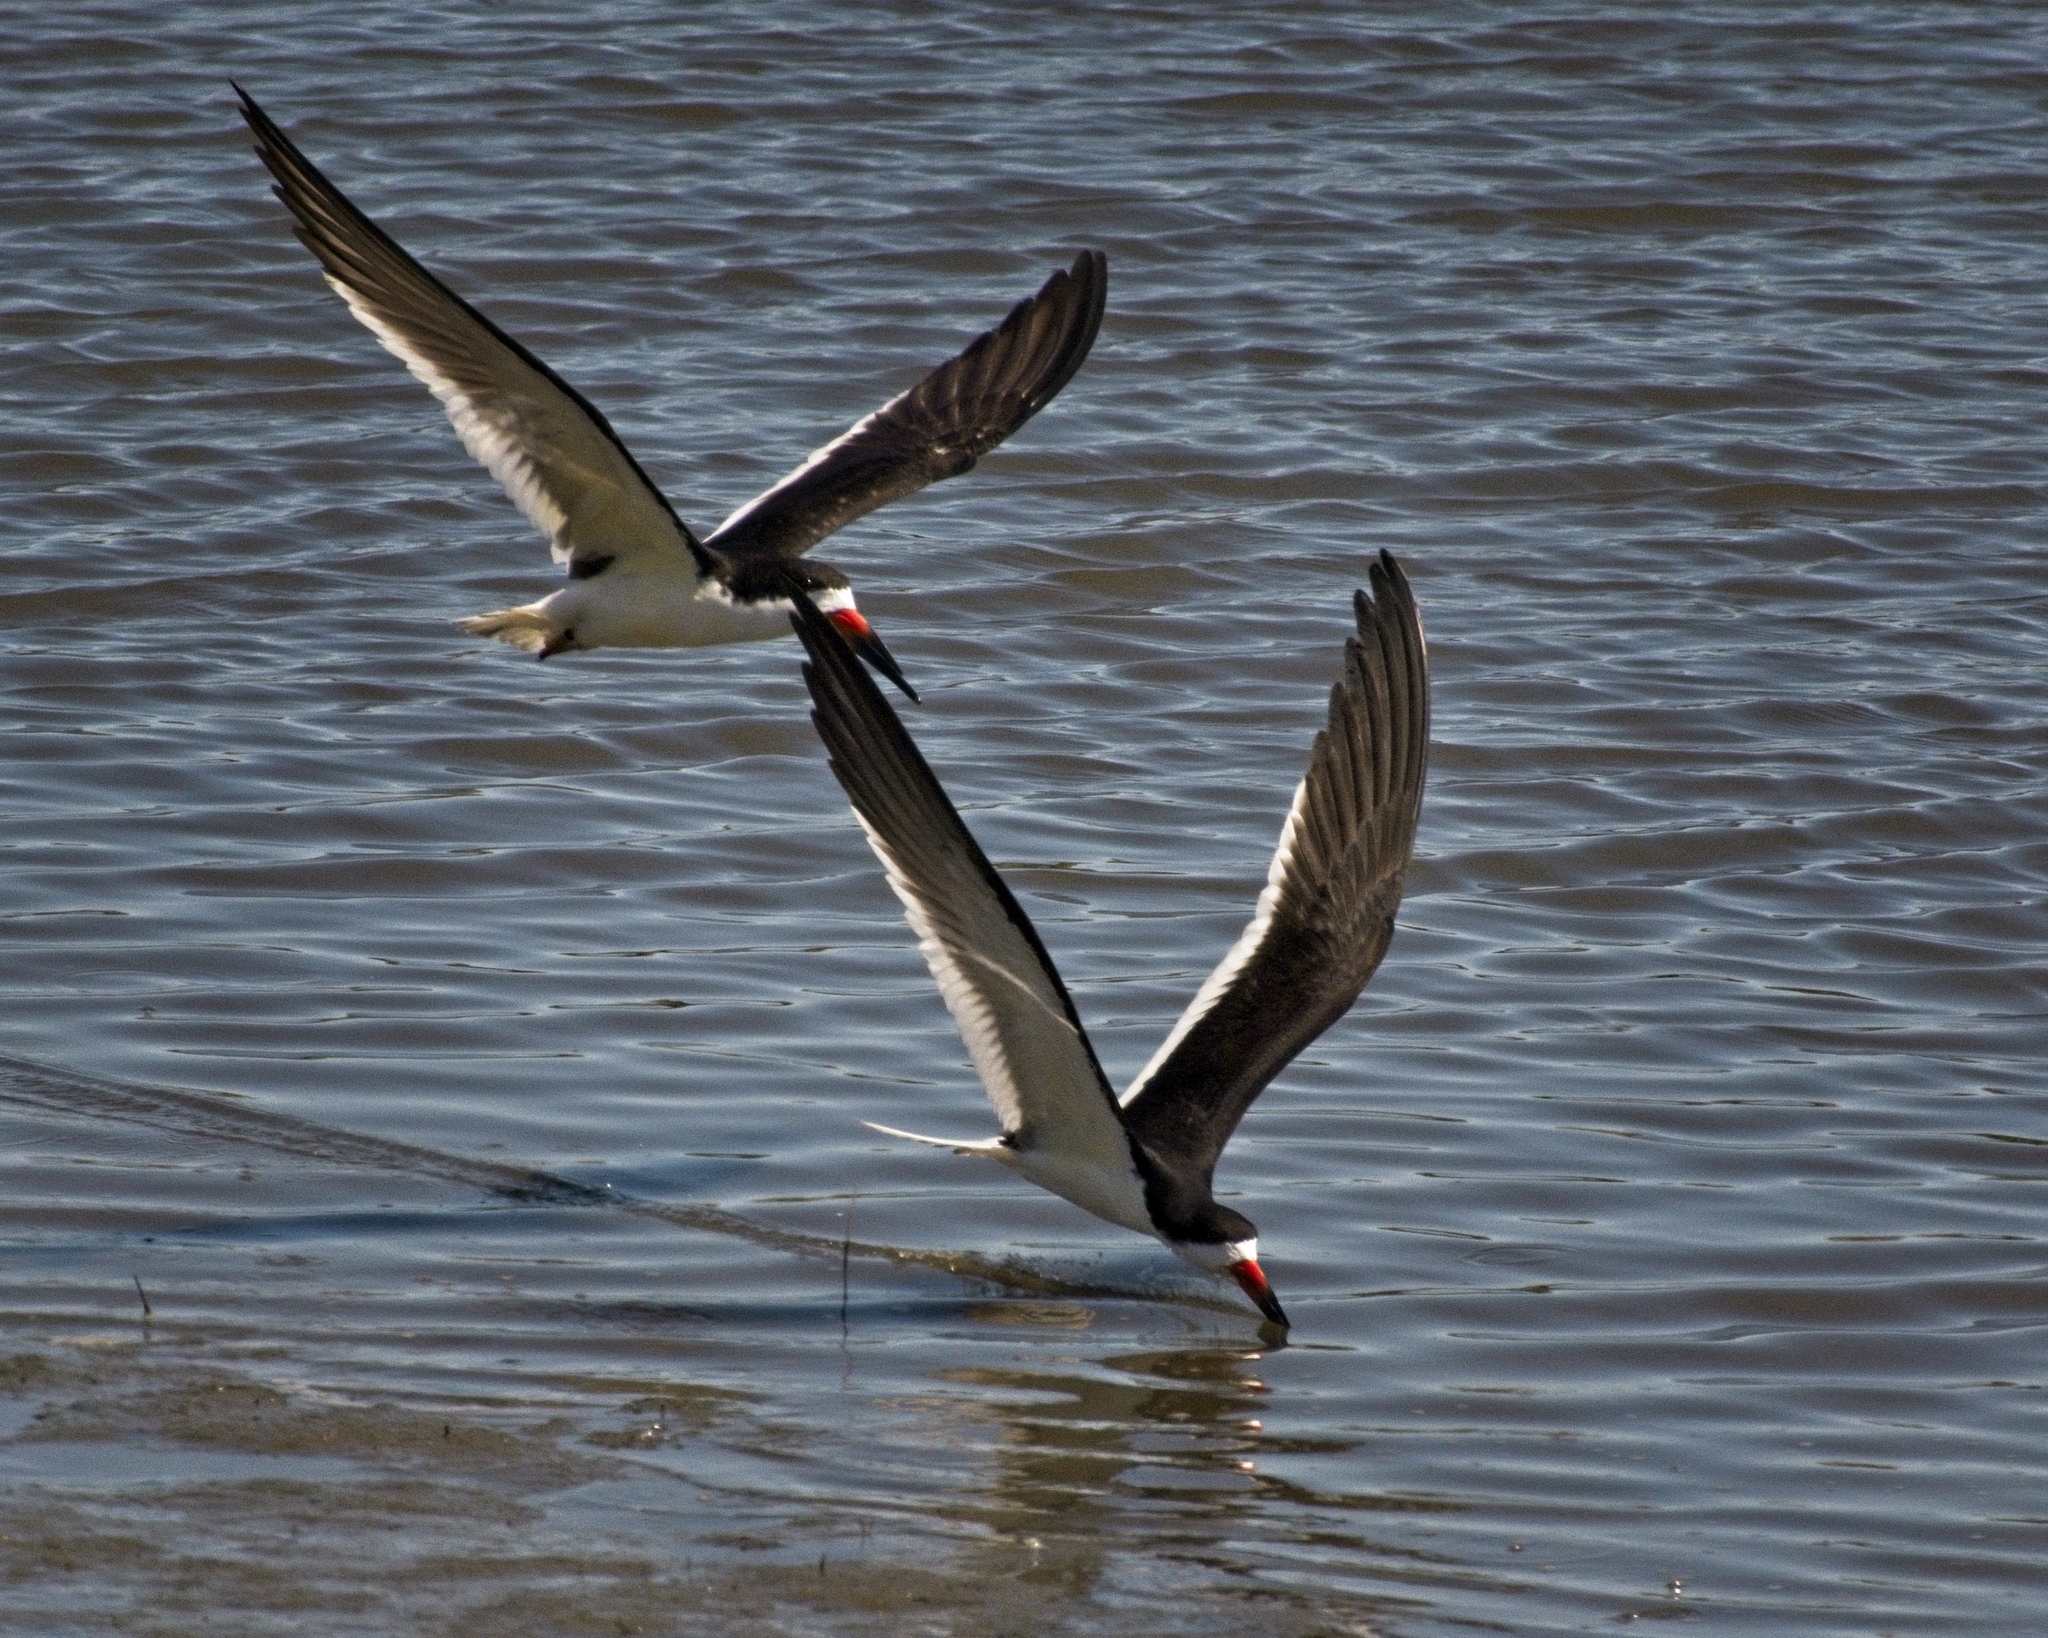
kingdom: Animalia
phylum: Chordata
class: Aves
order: Charadriiformes
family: Laridae
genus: Rynchops
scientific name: Rynchops niger
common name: Black skimmer
